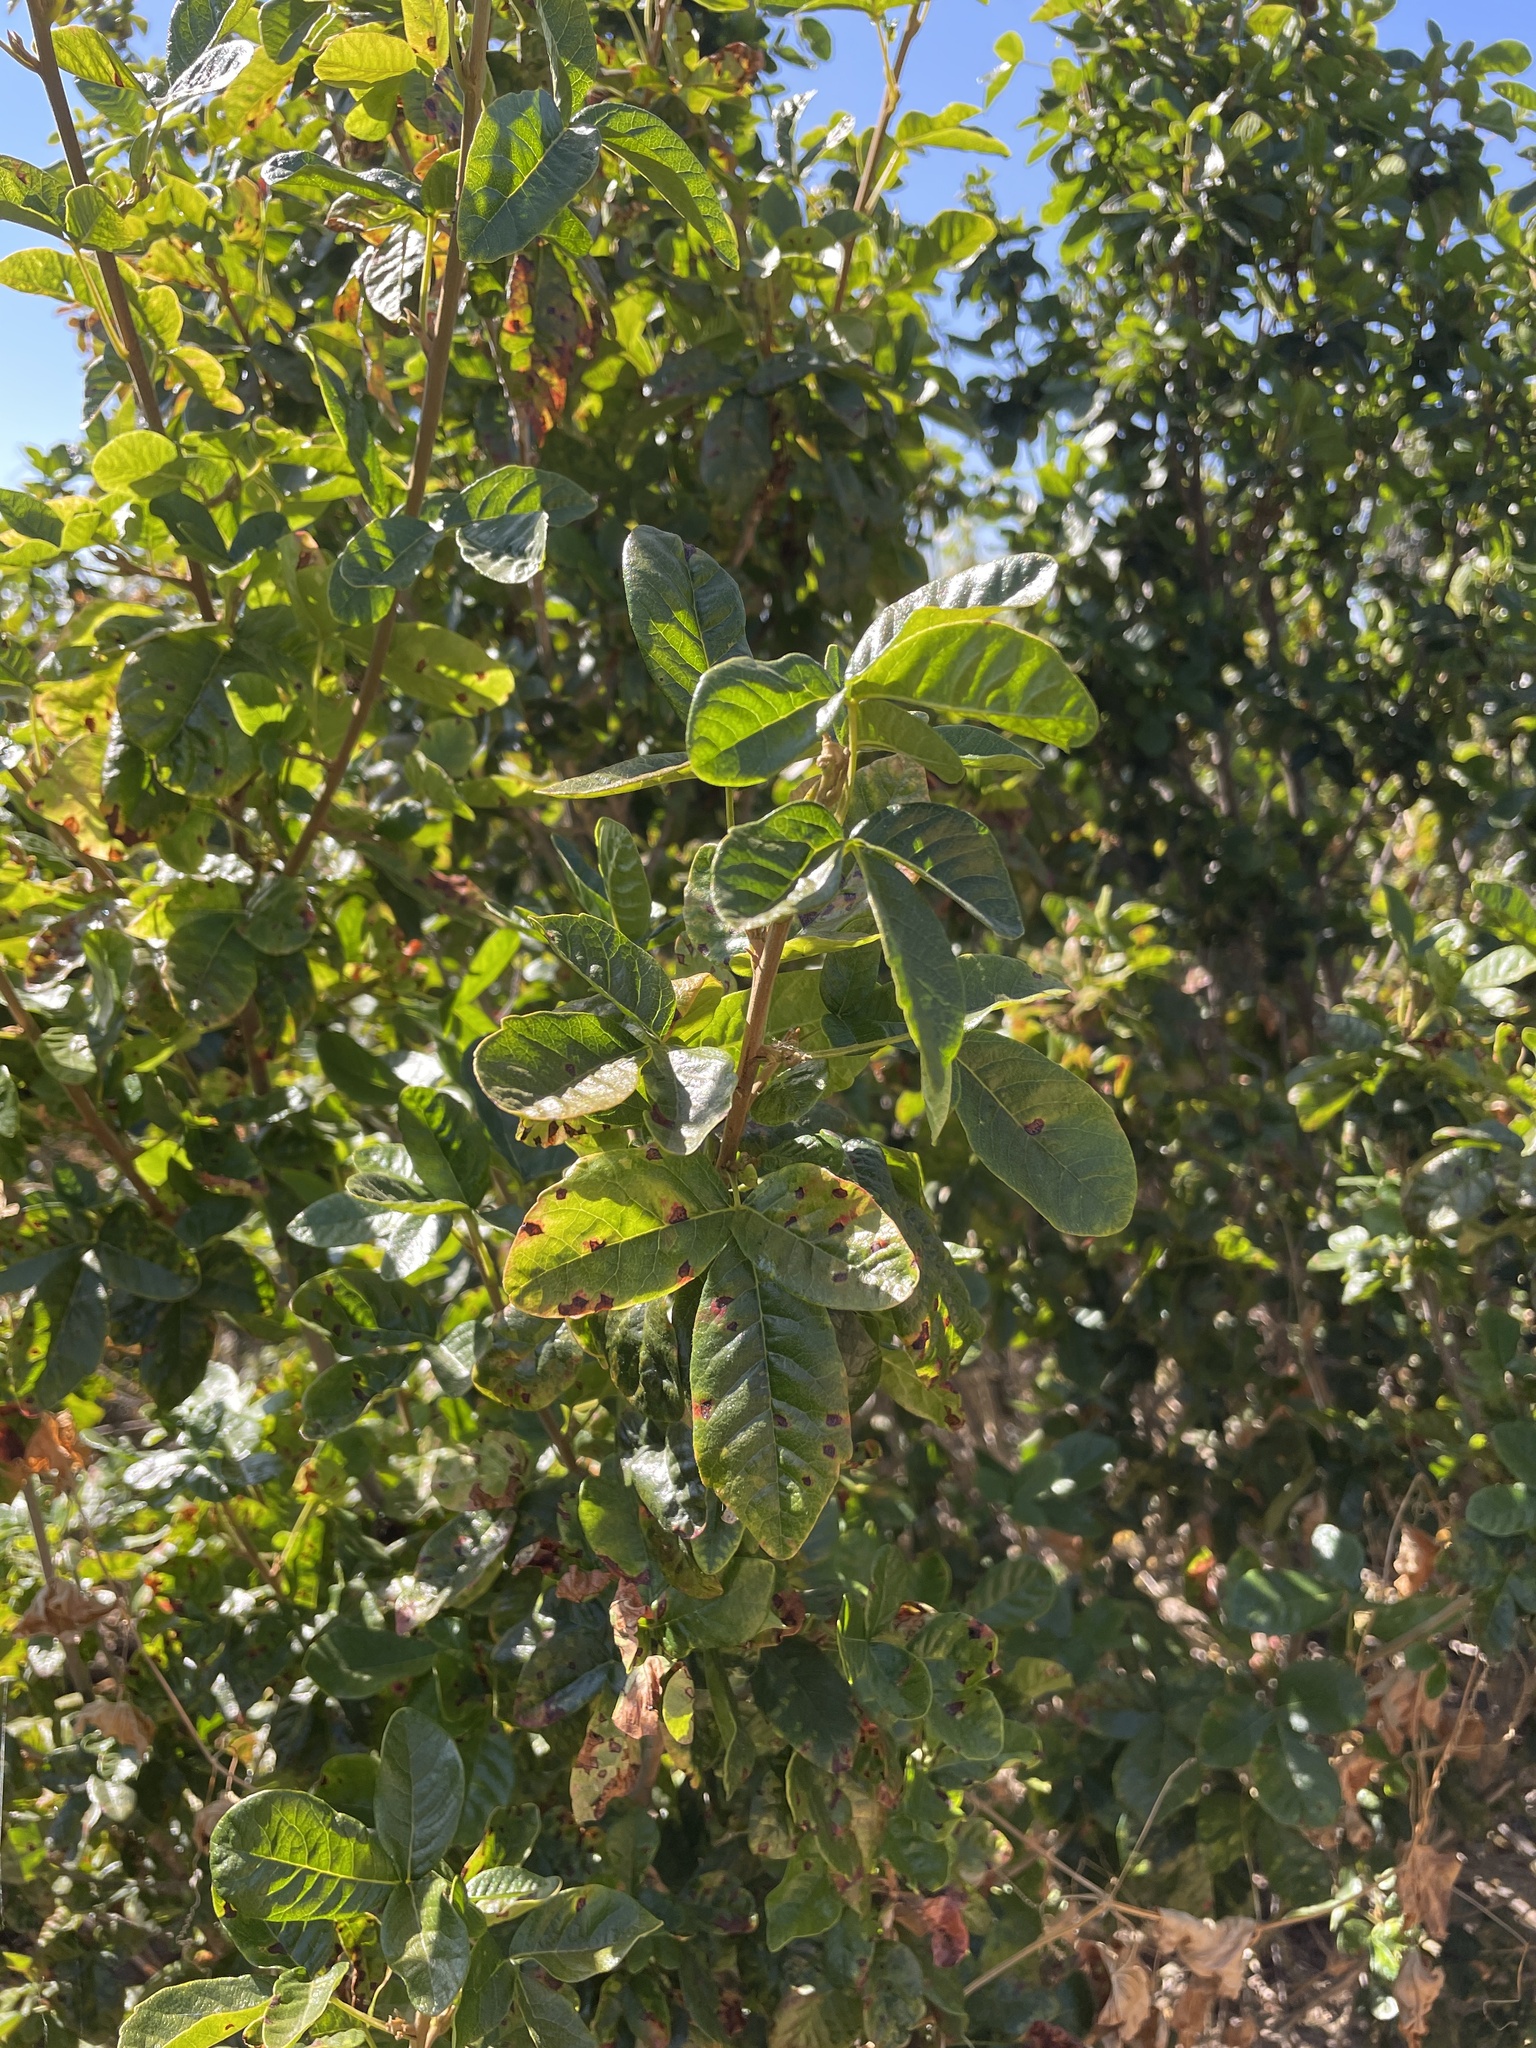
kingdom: Plantae
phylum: Tracheophyta
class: Magnoliopsida
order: Sapindales
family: Anacardiaceae
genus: Toxicodendron
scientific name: Toxicodendron diversilobum
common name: Pacific poison-oak
